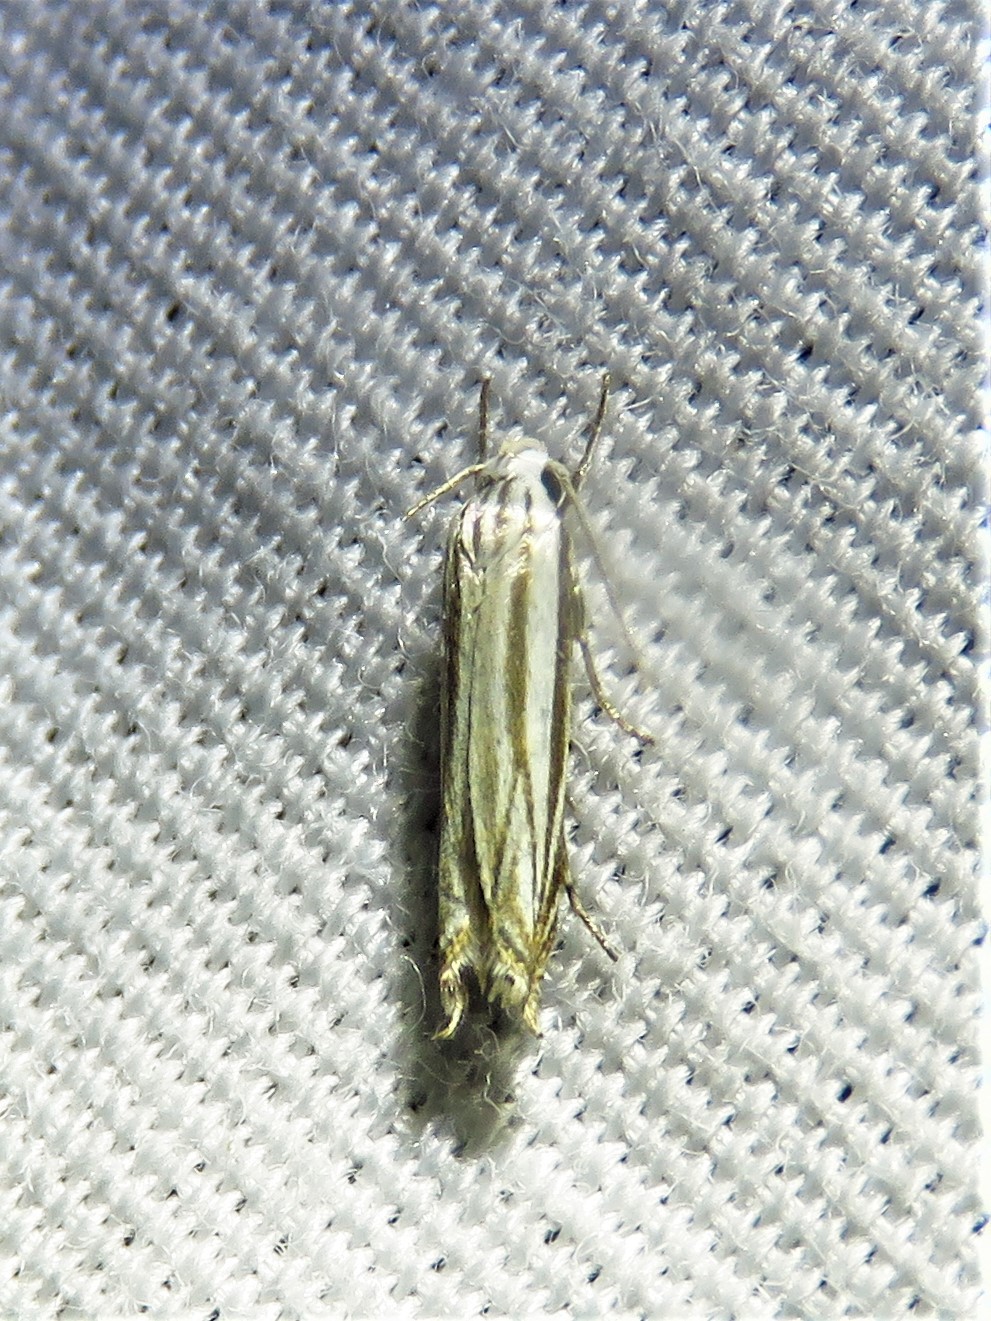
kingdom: Animalia
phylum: Arthropoda
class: Insecta
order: Lepidoptera
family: Gelechiidae
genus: Polyhymno
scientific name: Polyhymno luteostrigella
